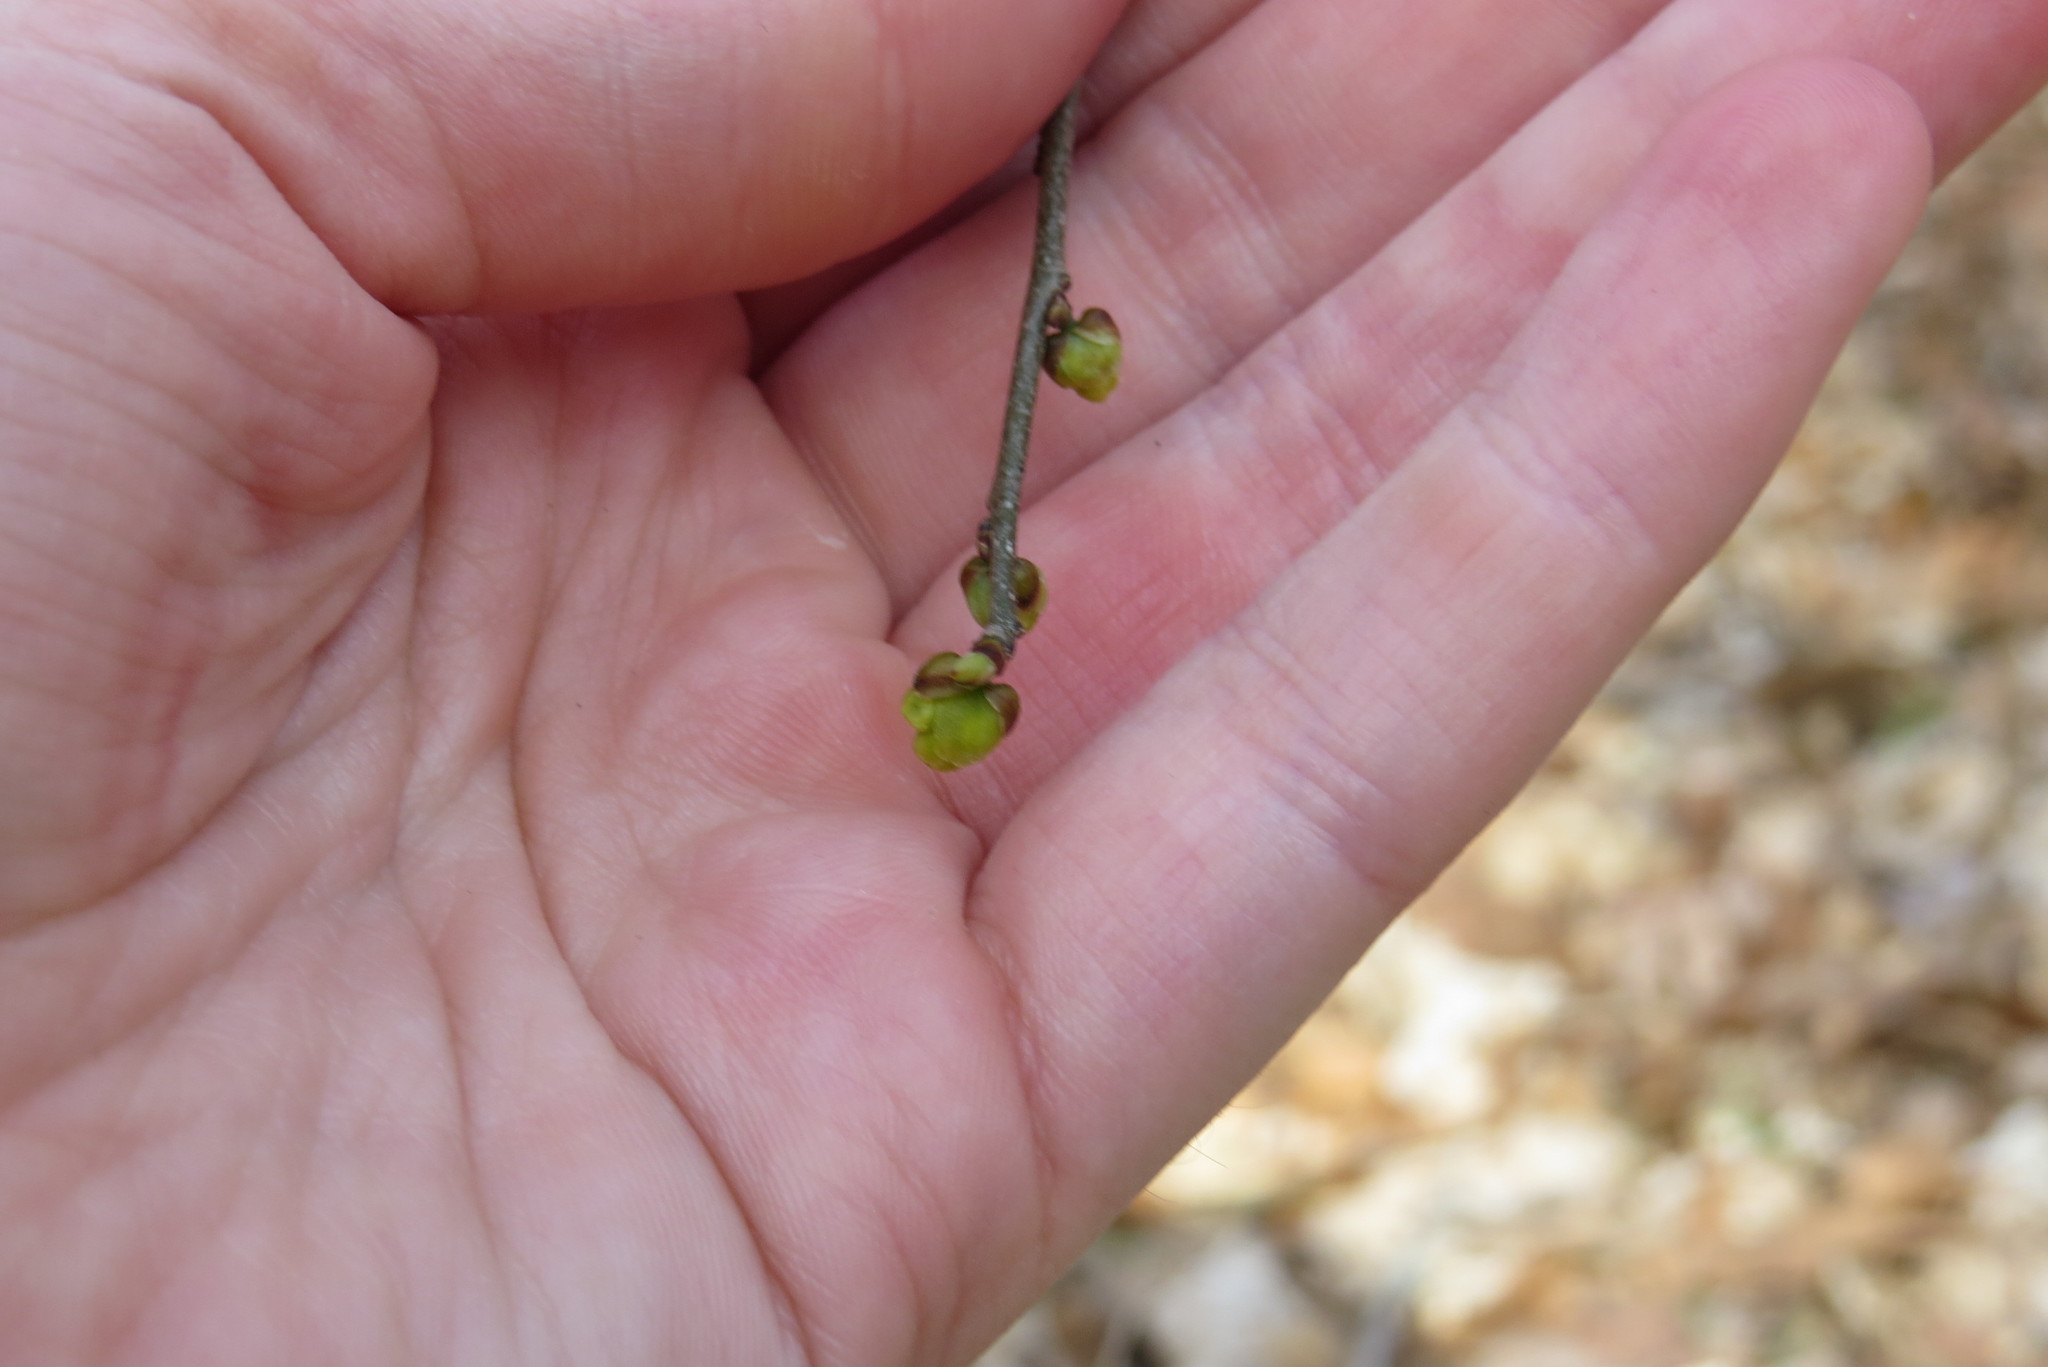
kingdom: Plantae
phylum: Tracheophyta
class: Magnoliopsida
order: Laurales
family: Lauraceae
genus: Lindera
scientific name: Lindera benzoin
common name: Spicebush
